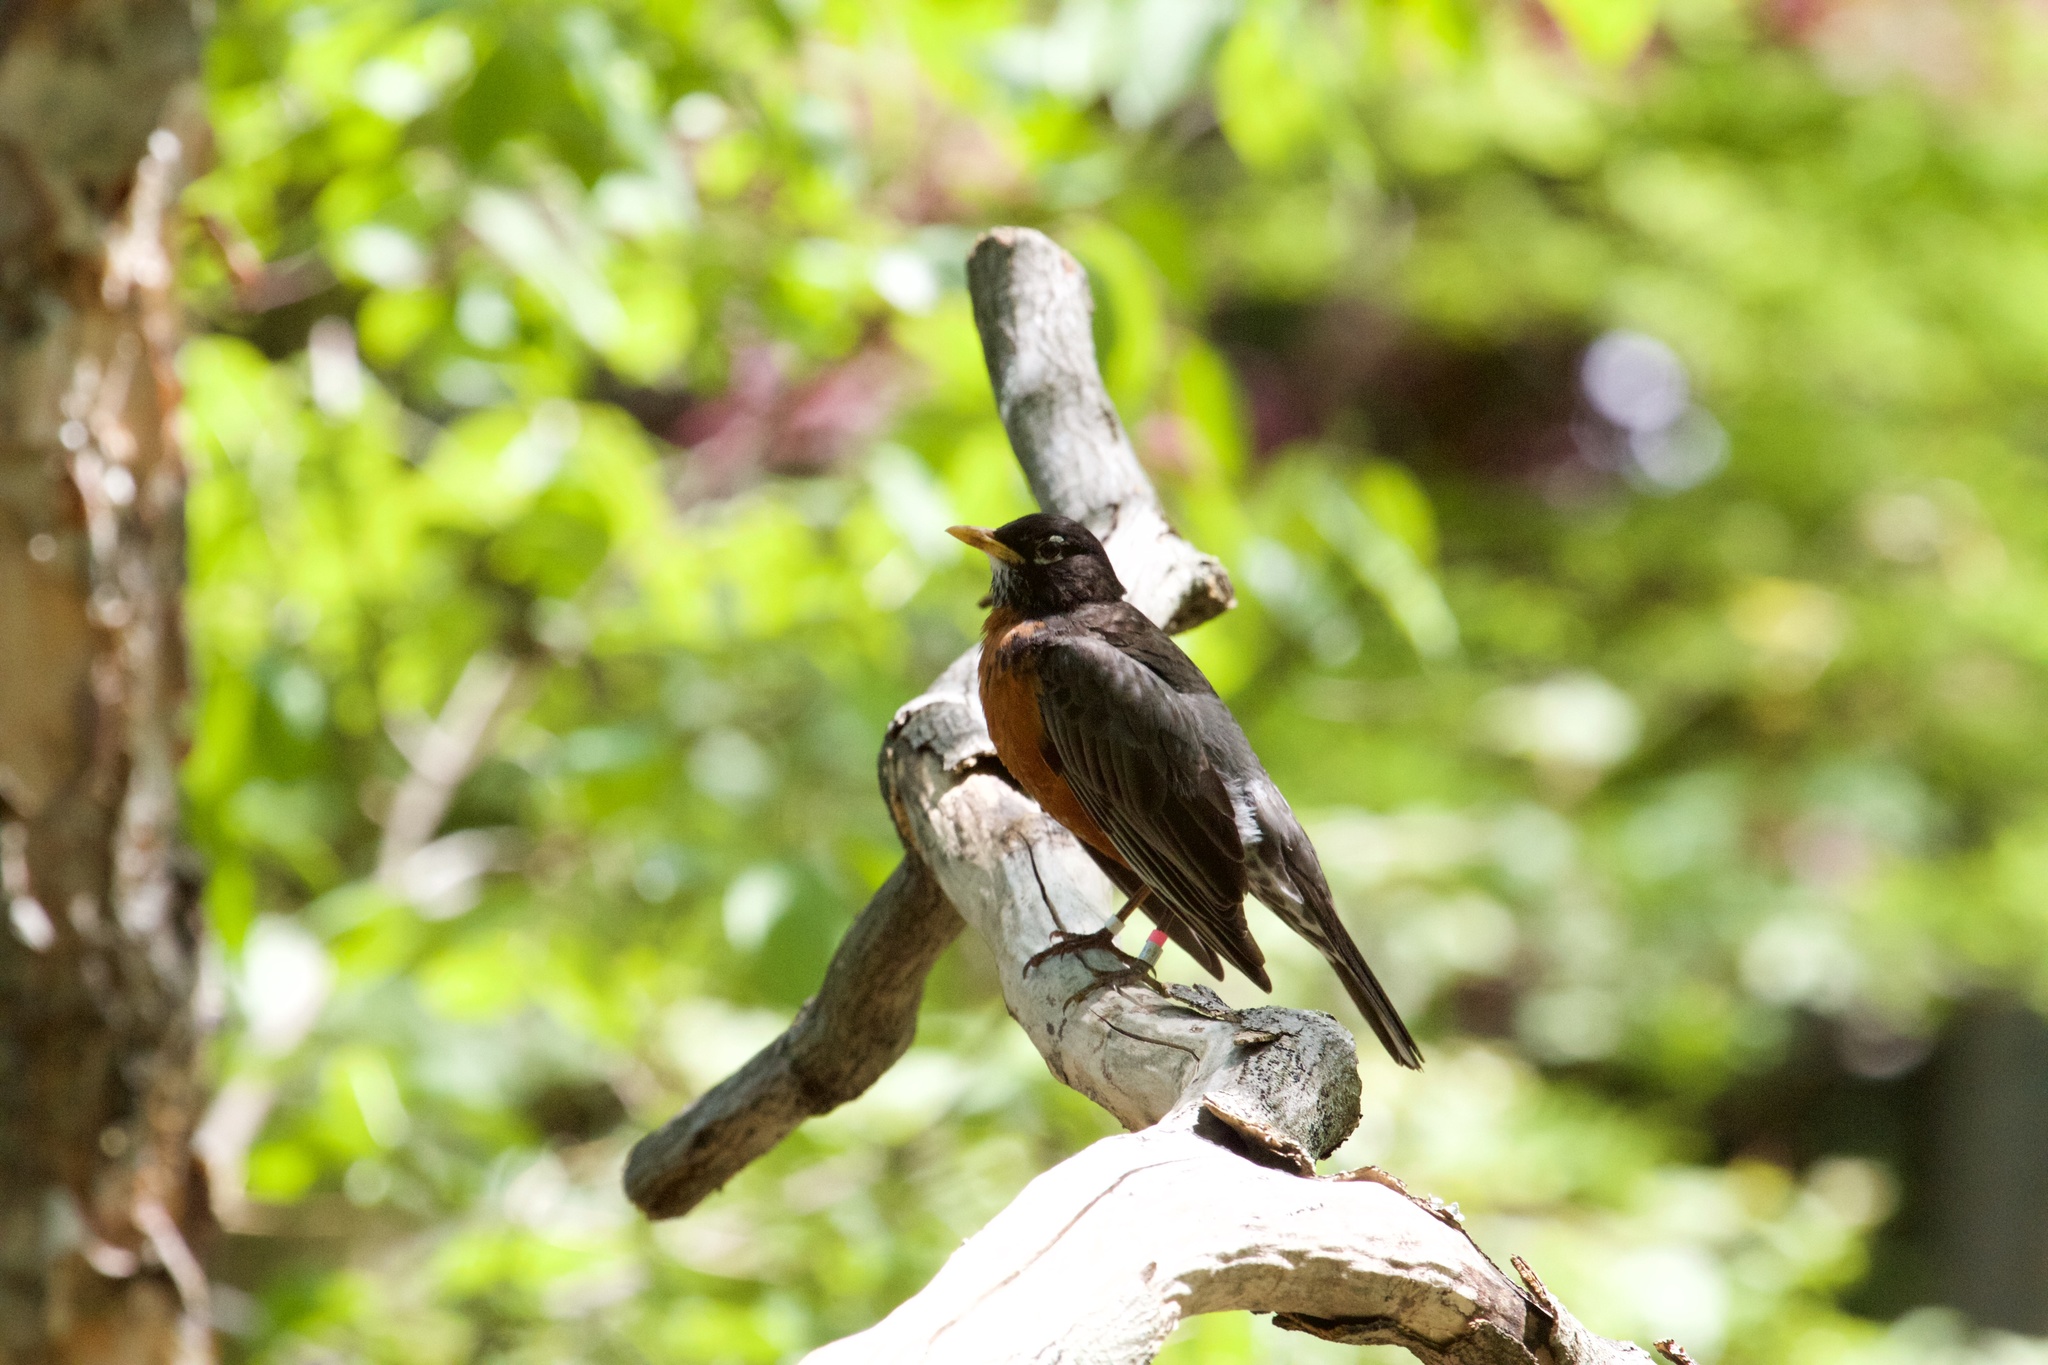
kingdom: Animalia
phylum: Chordata
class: Aves
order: Passeriformes
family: Turdidae
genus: Turdus
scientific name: Turdus migratorius
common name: American robin
